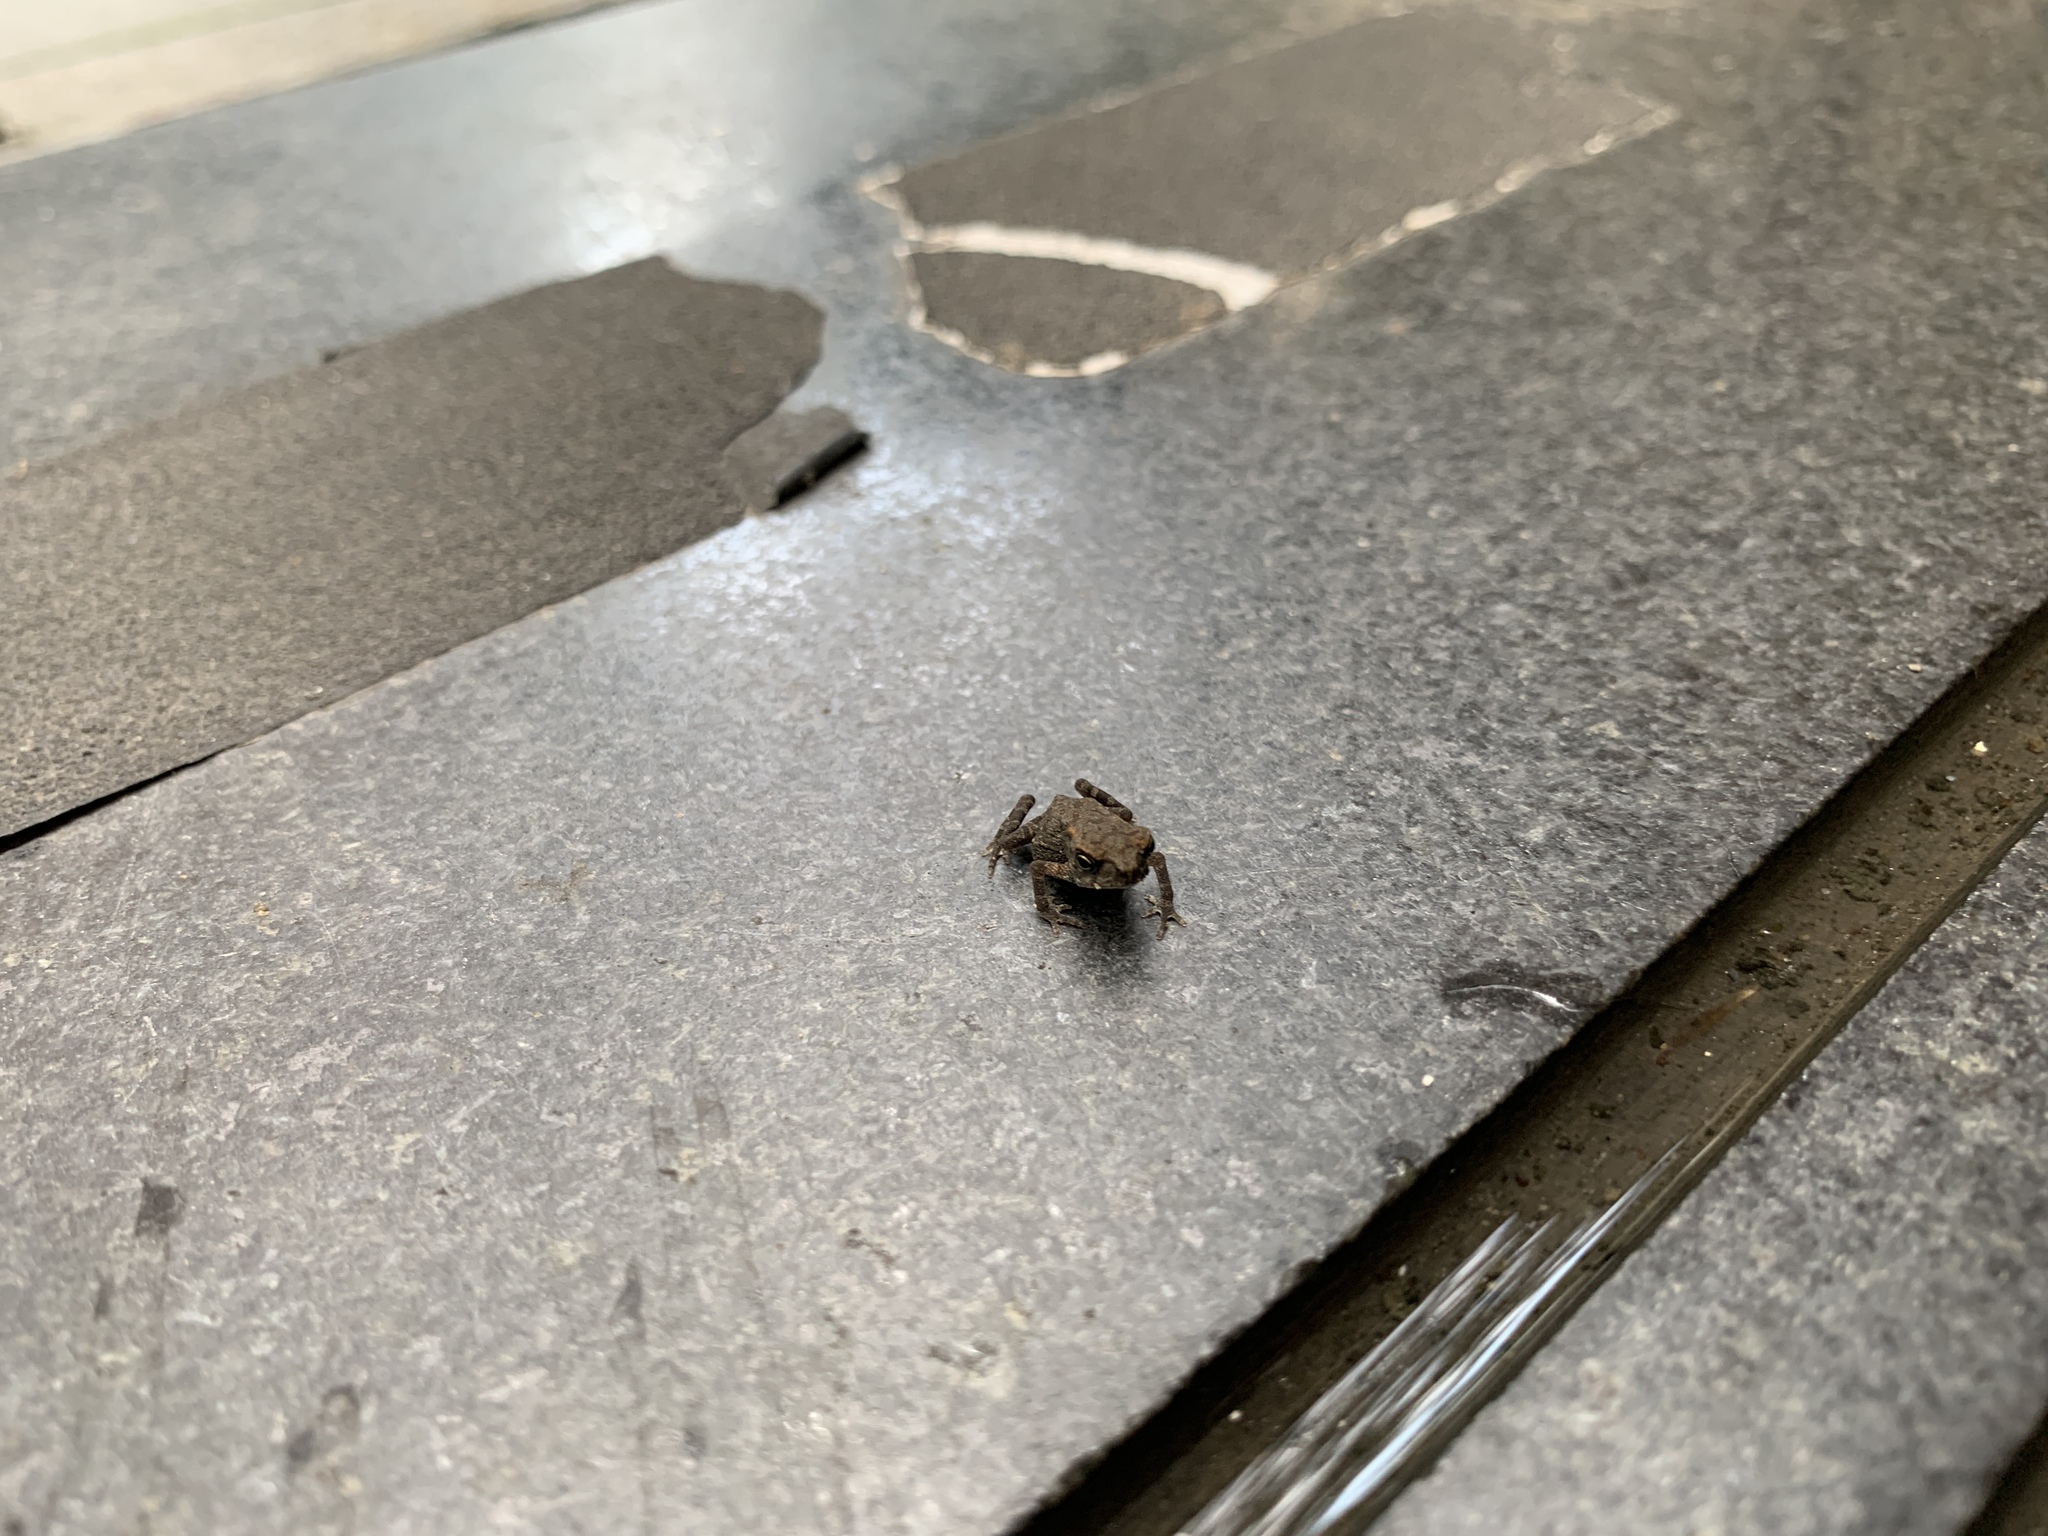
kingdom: Animalia
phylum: Chordata
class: Amphibia
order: Anura
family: Bufonidae
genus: Duttaphrynus
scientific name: Duttaphrynus melanostictus
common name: Common sunda toad
